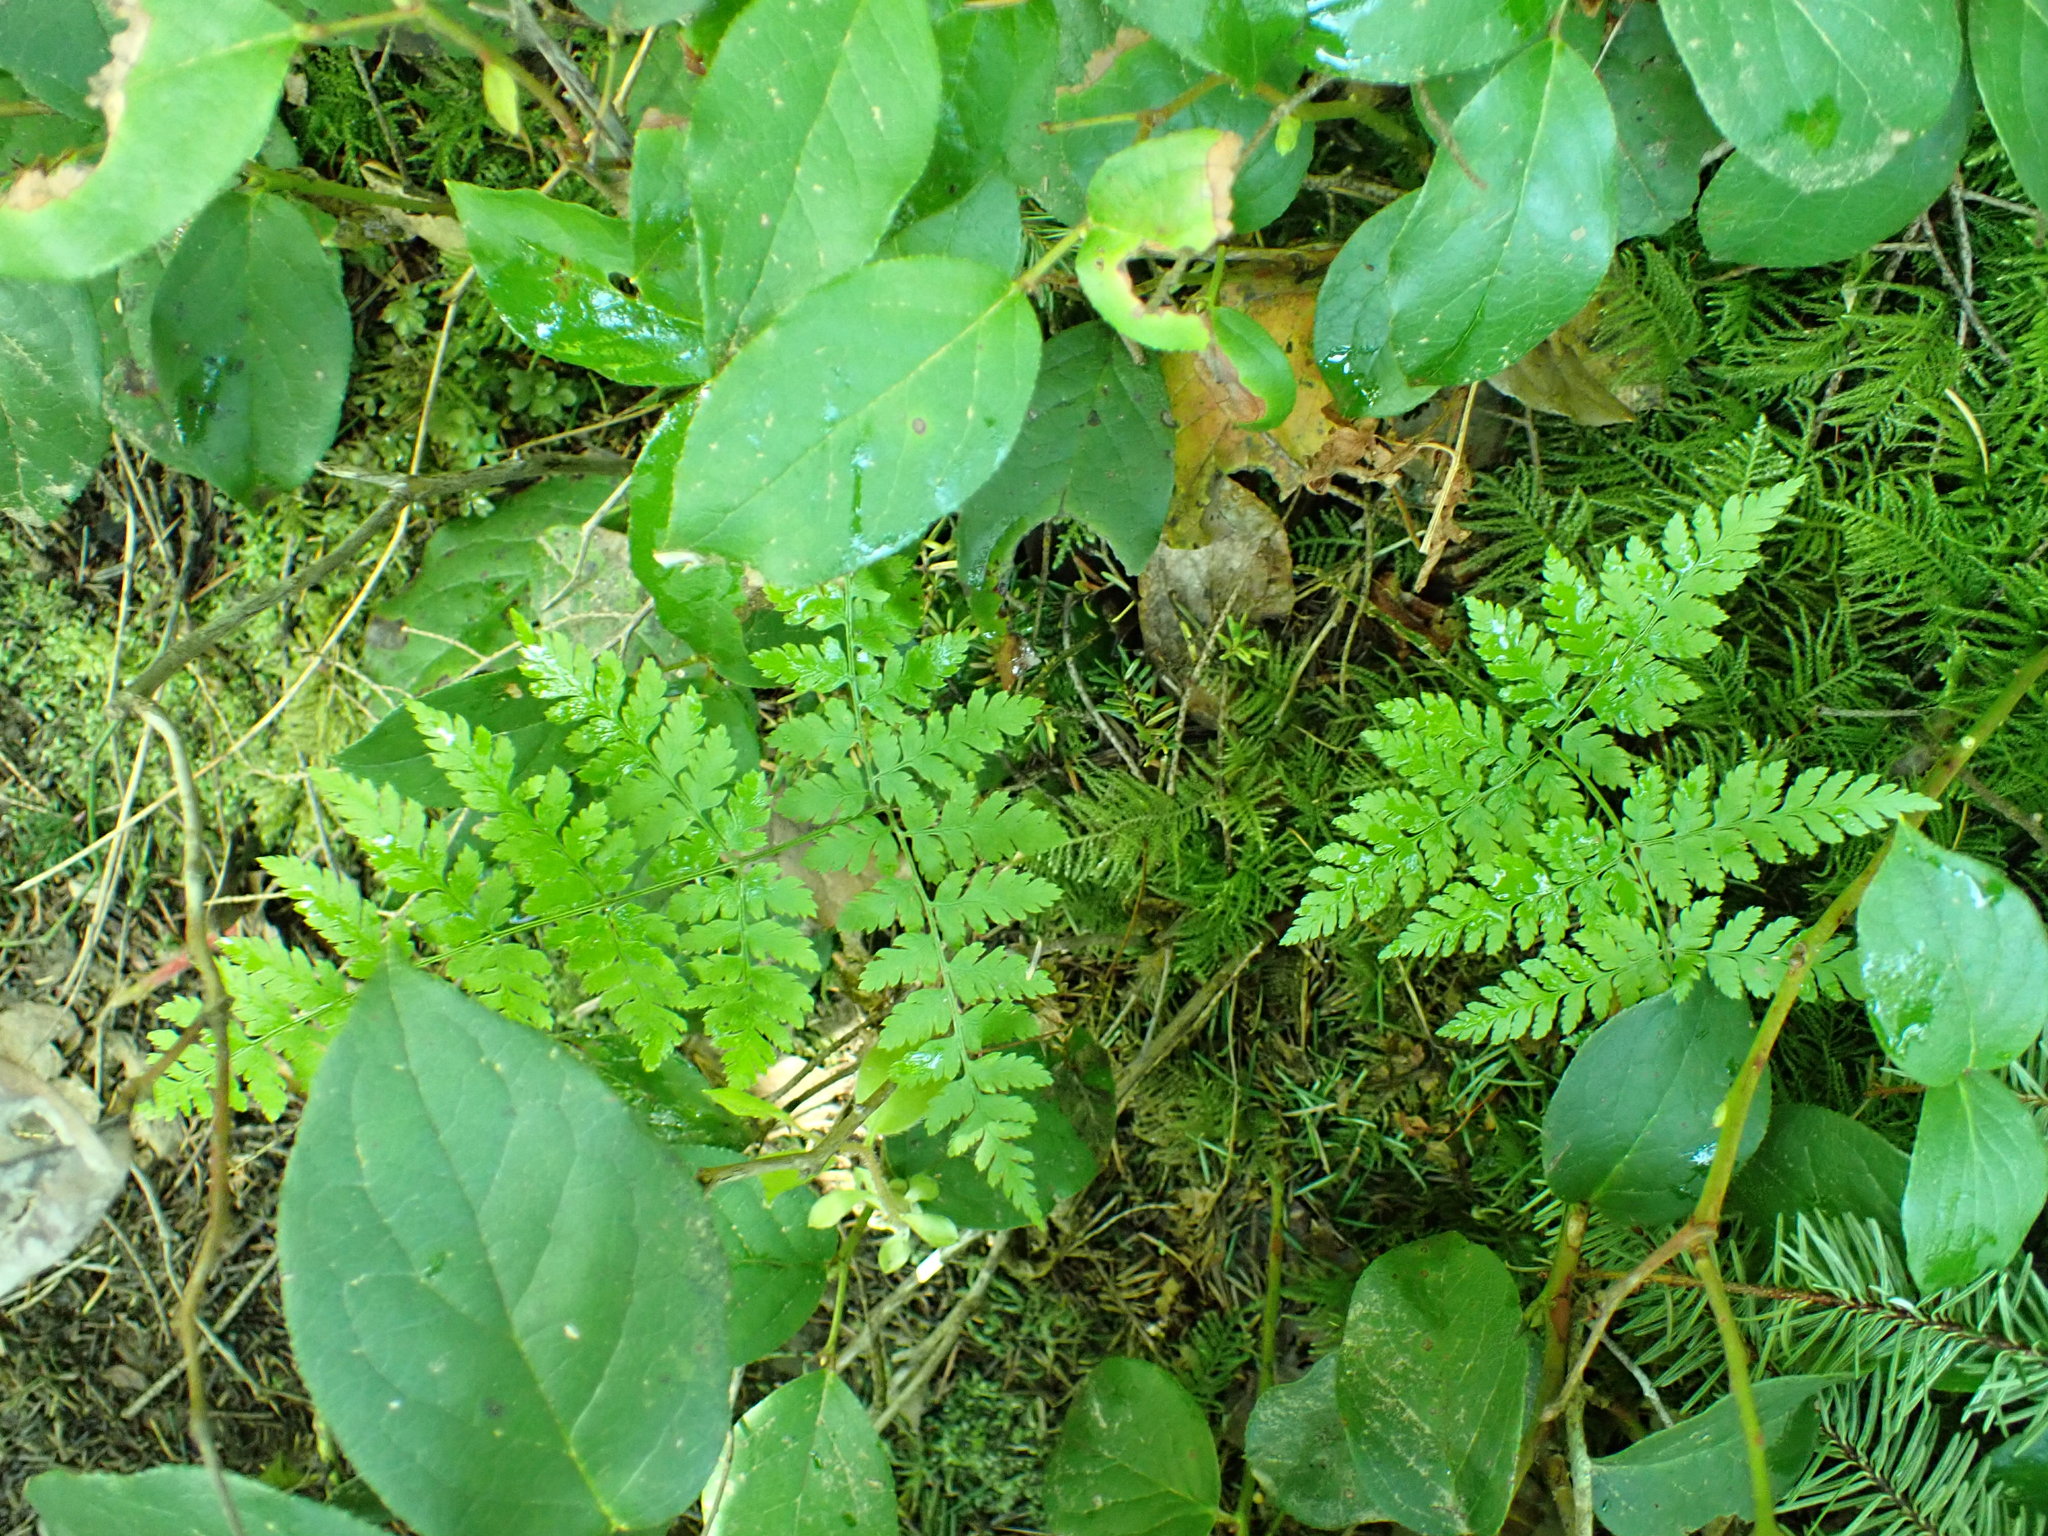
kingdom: Plantae
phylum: Tracheophyta
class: Polypodiopsida
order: Polypodiales
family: Dryopteridaceae
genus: Dryopteris
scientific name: Dryopteris expansa
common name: Northern buckler fern
